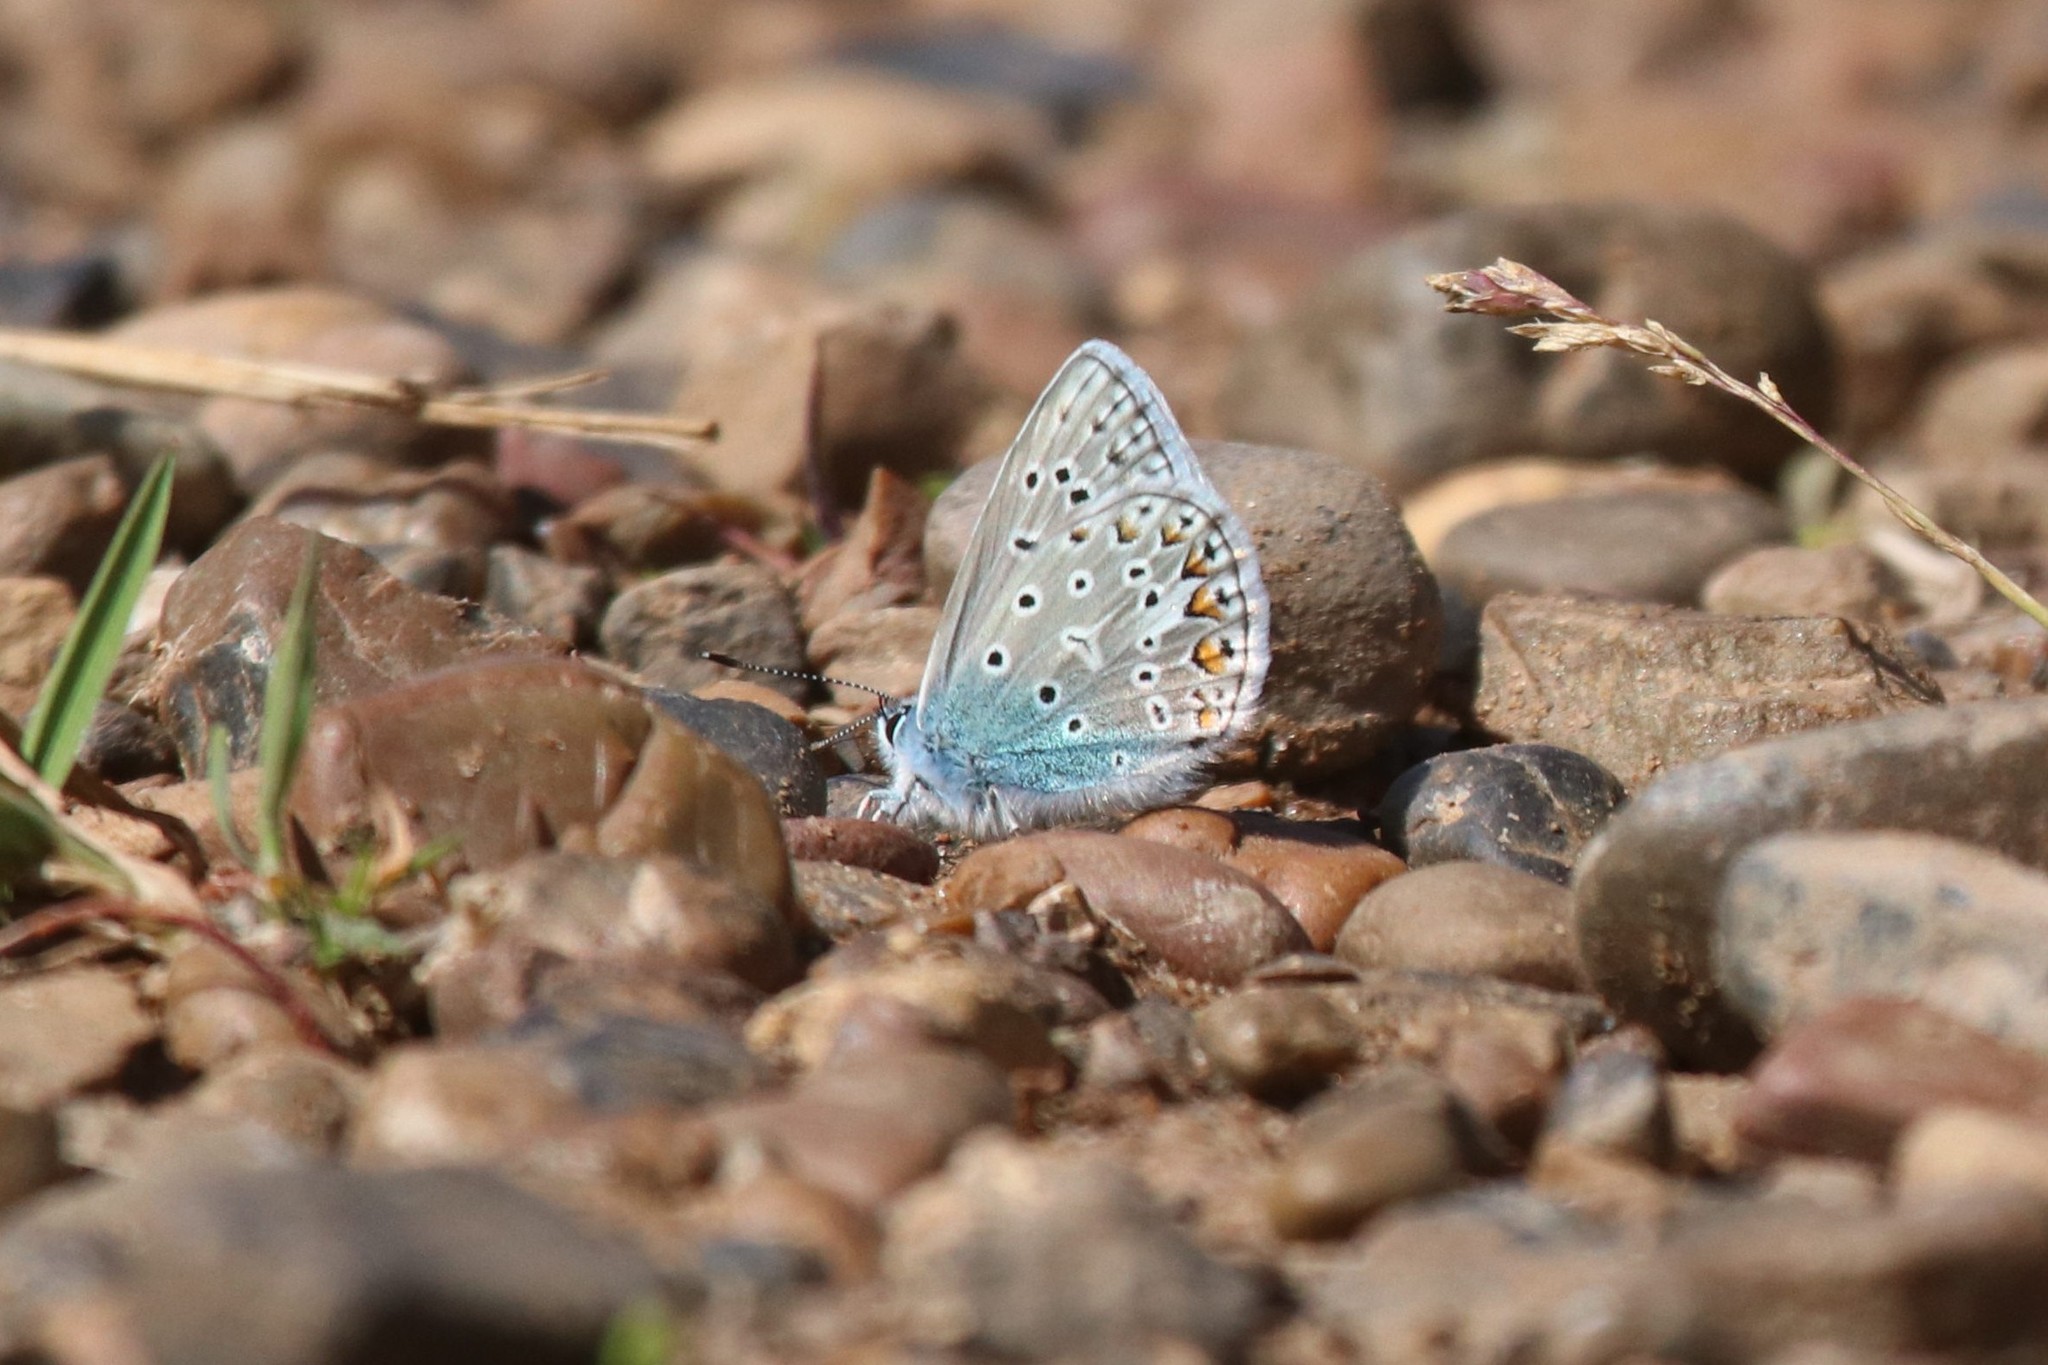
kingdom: Animalia
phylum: Arthropoda
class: Insecta
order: Lepidoptera
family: Lycaenidae
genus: Polyommatus
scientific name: Polyommatus icarus
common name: Common blue
